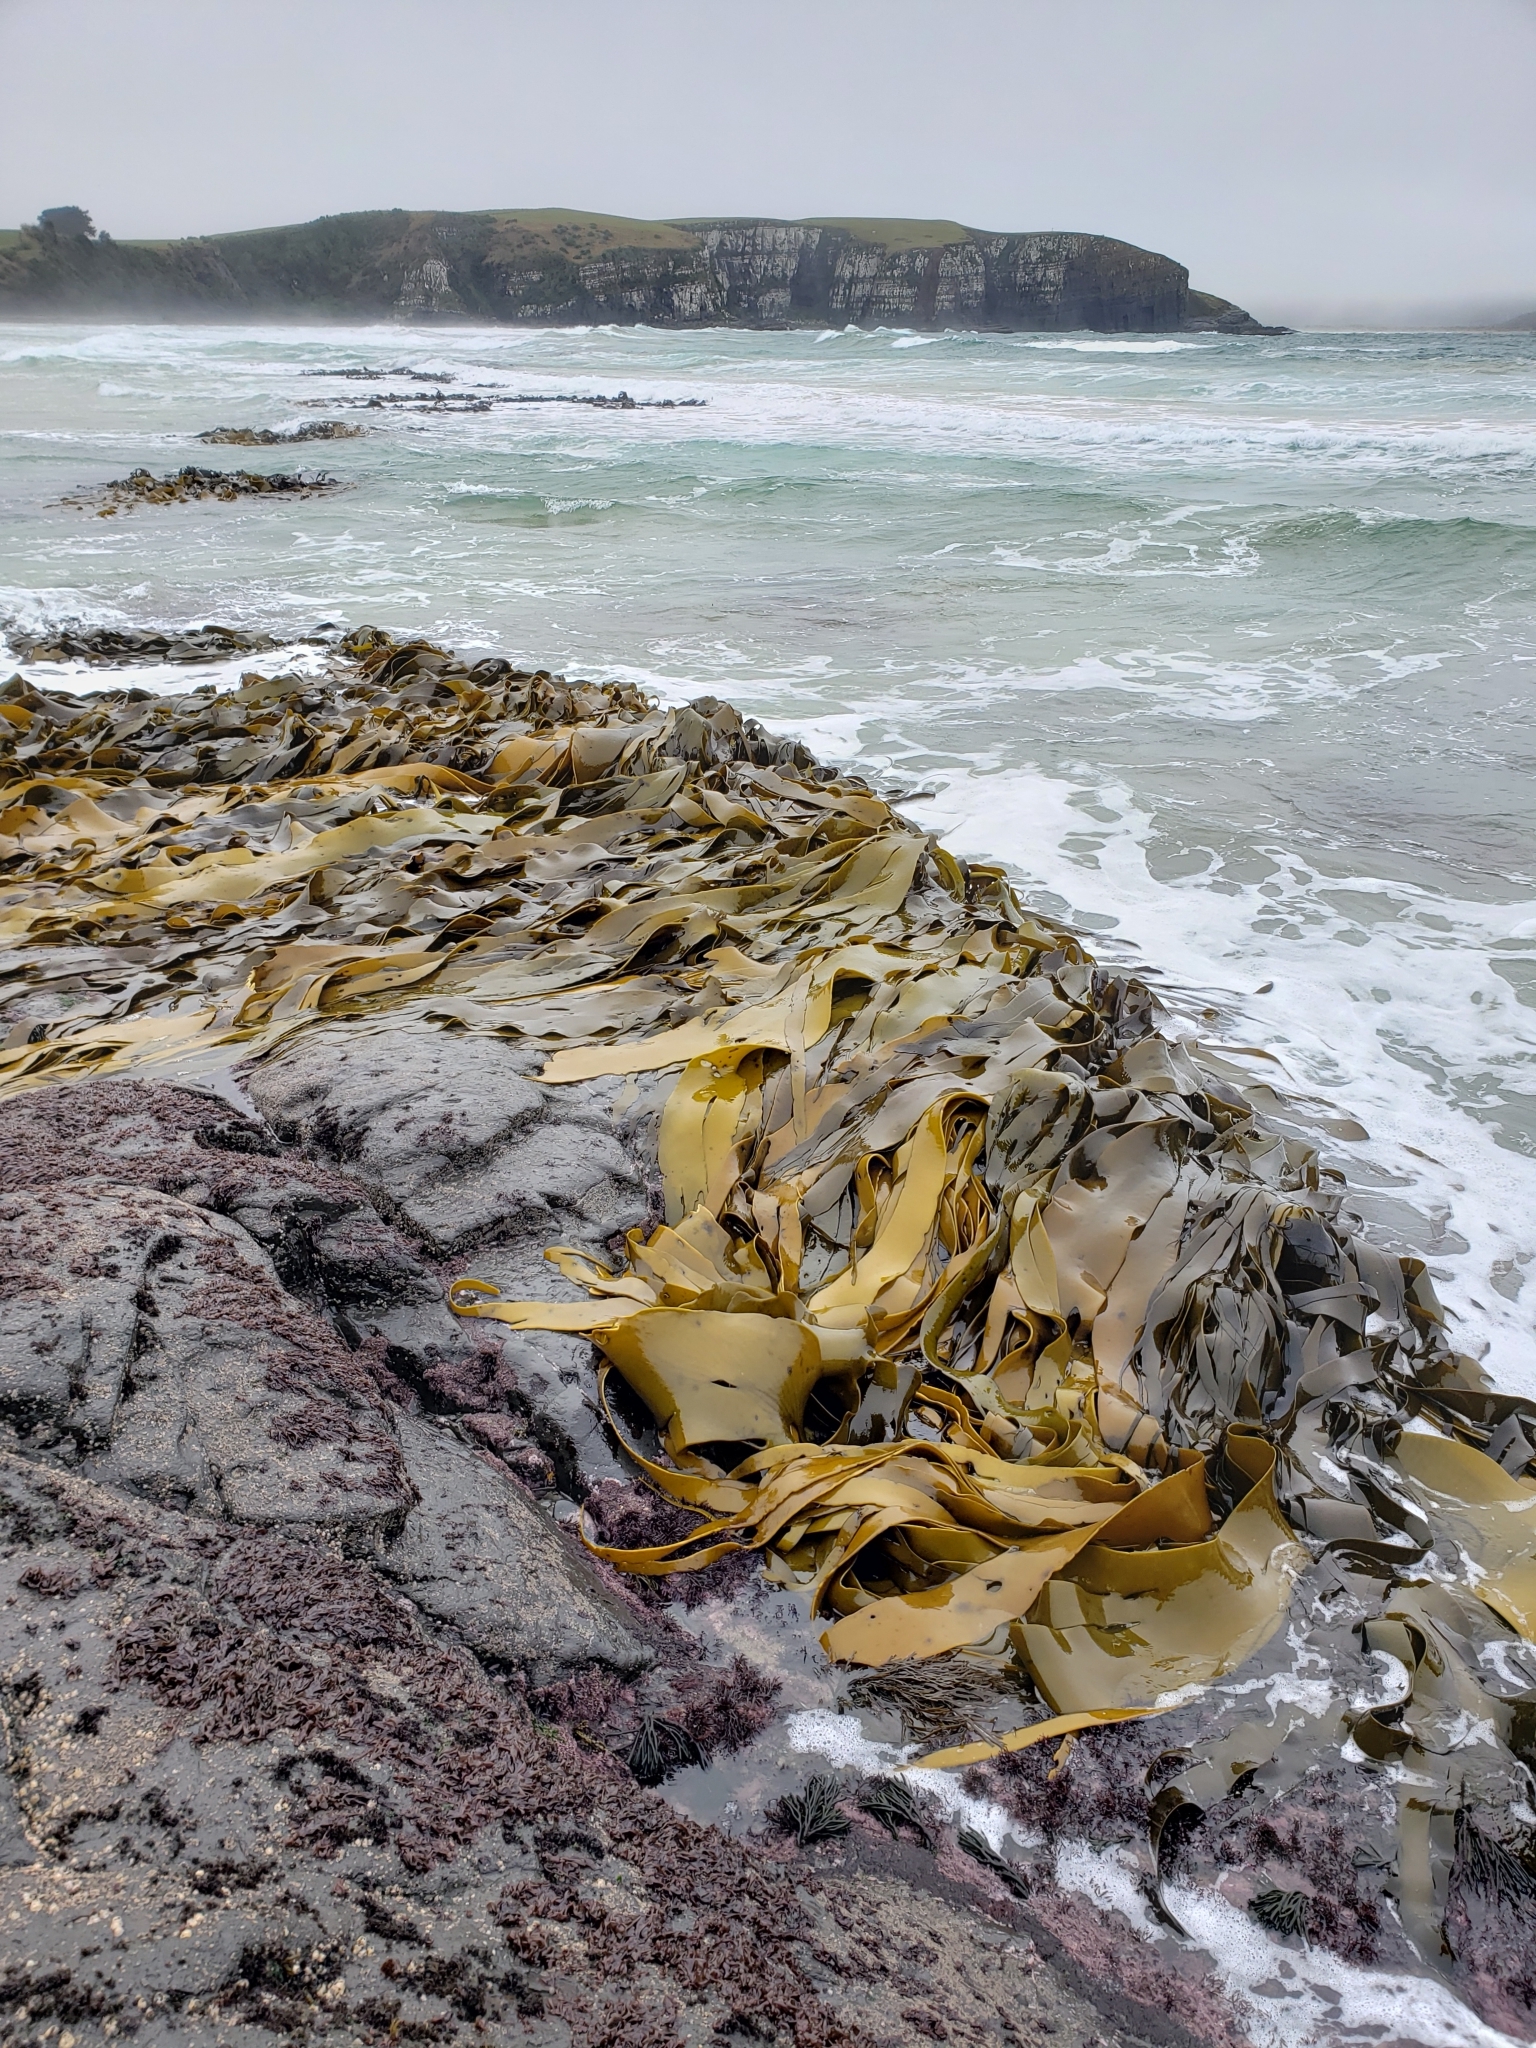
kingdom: Chromista
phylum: Ochrophyta
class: Phaeophyceae
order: Fucales
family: Durvillaeaceae
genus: Durvillaea
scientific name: Durvillaea antarctica
